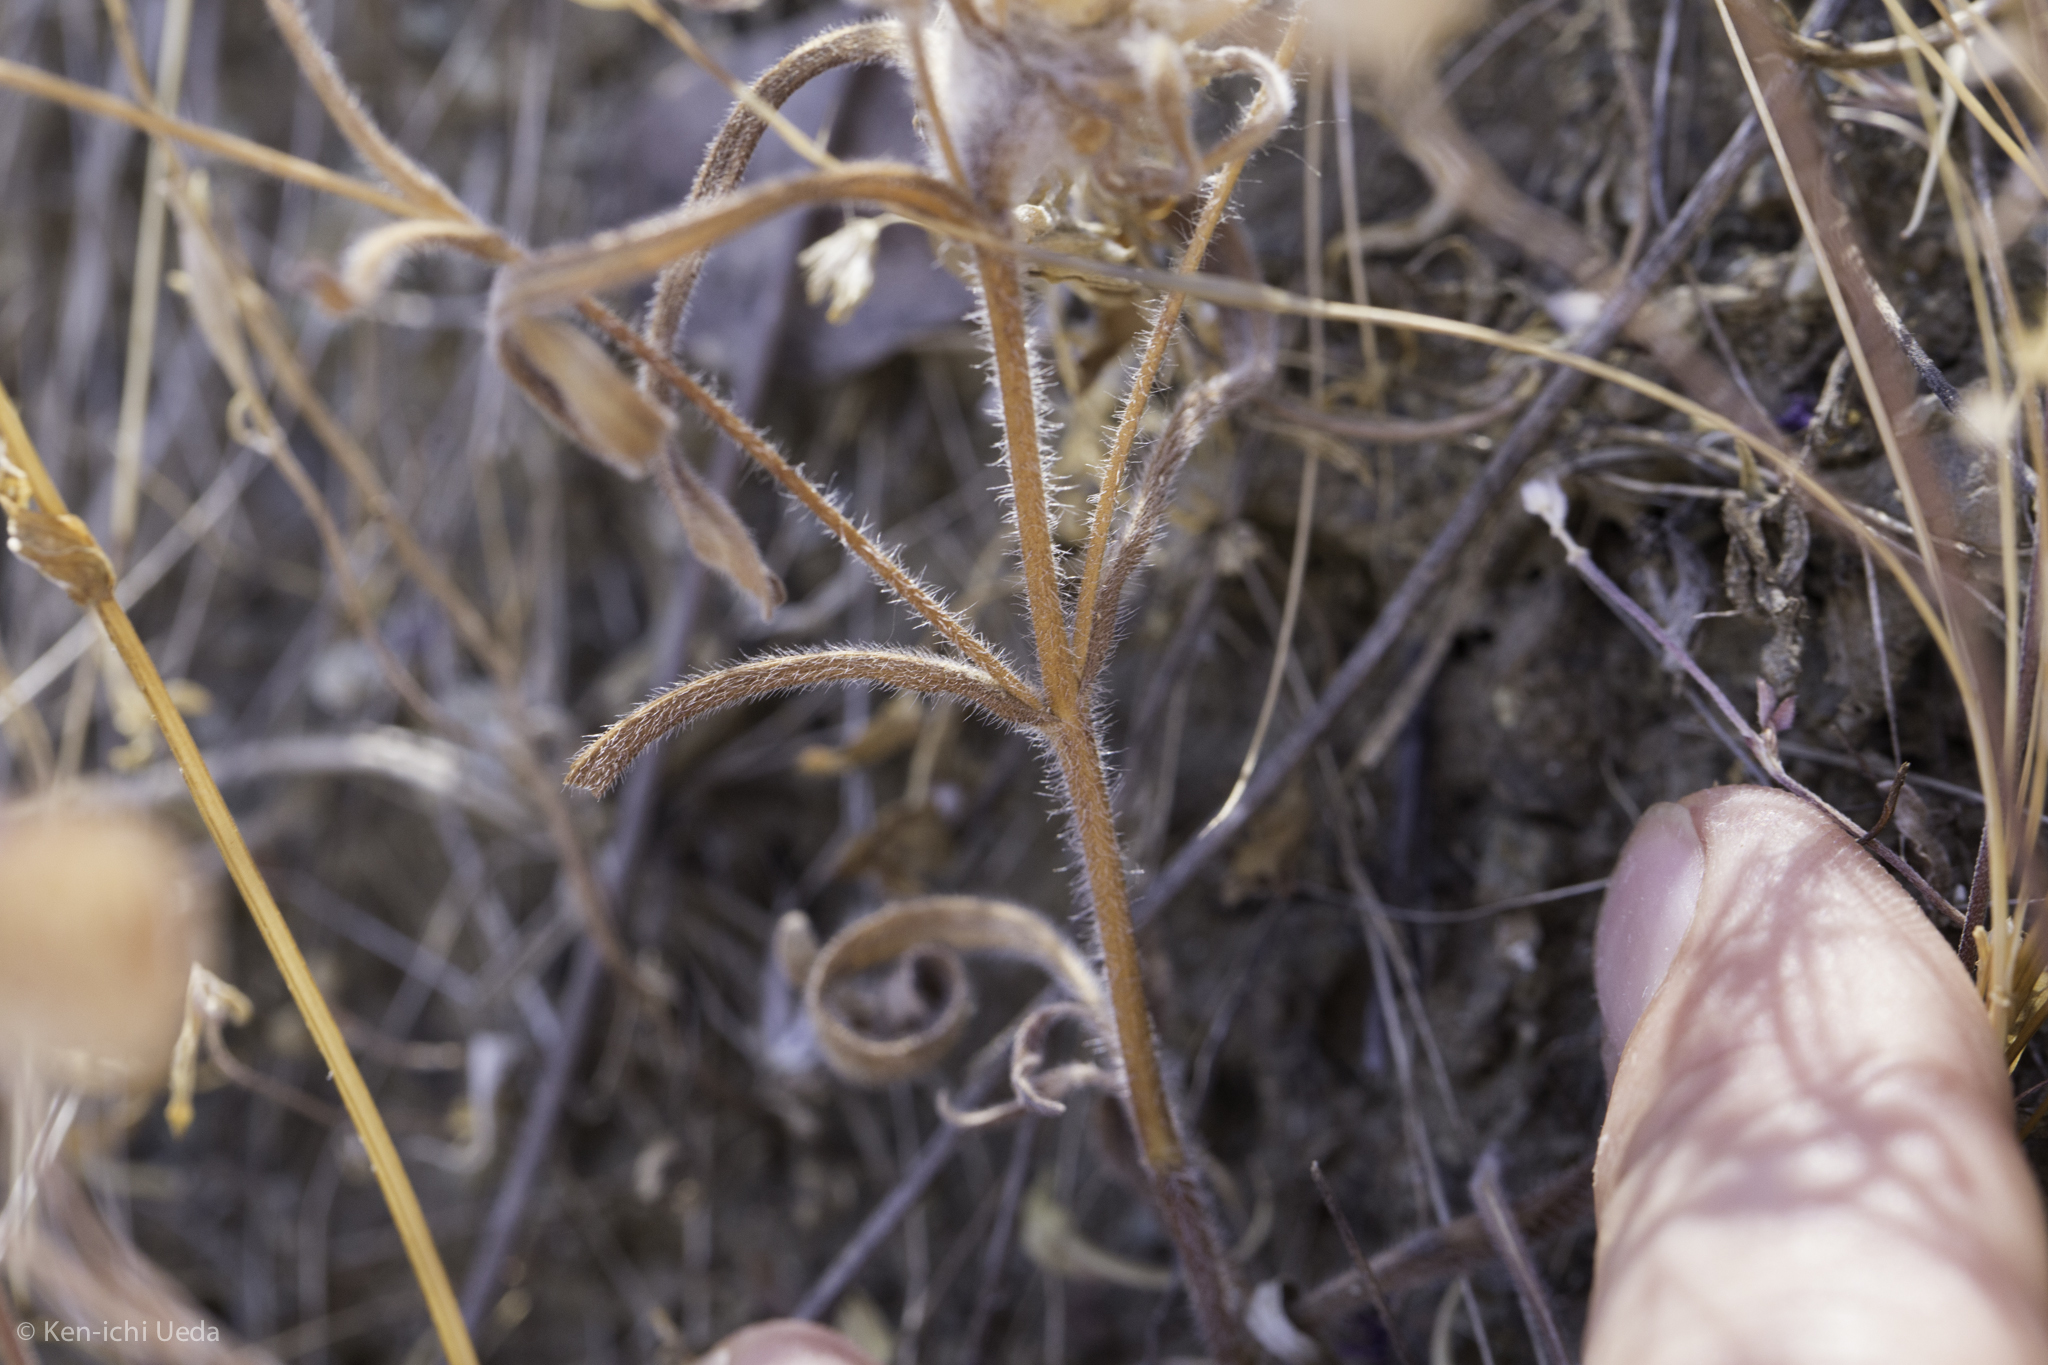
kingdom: Plantae
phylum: Tracheophyta
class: Magnoliopsida
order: Lamiales
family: Lamiaceae
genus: Monardella
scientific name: Monardella douglasii
